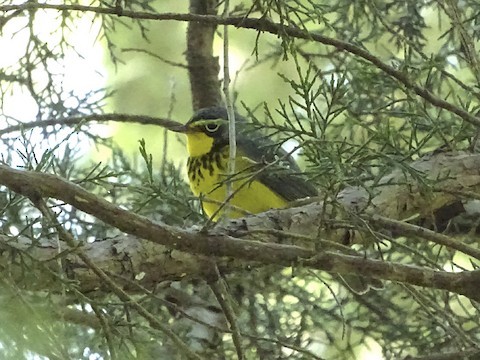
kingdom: Animalia
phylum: Chordata
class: Aves
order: Passeriformes
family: Parulidae
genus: Cardellina
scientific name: Cardellina canadensis
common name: Canada warbler
